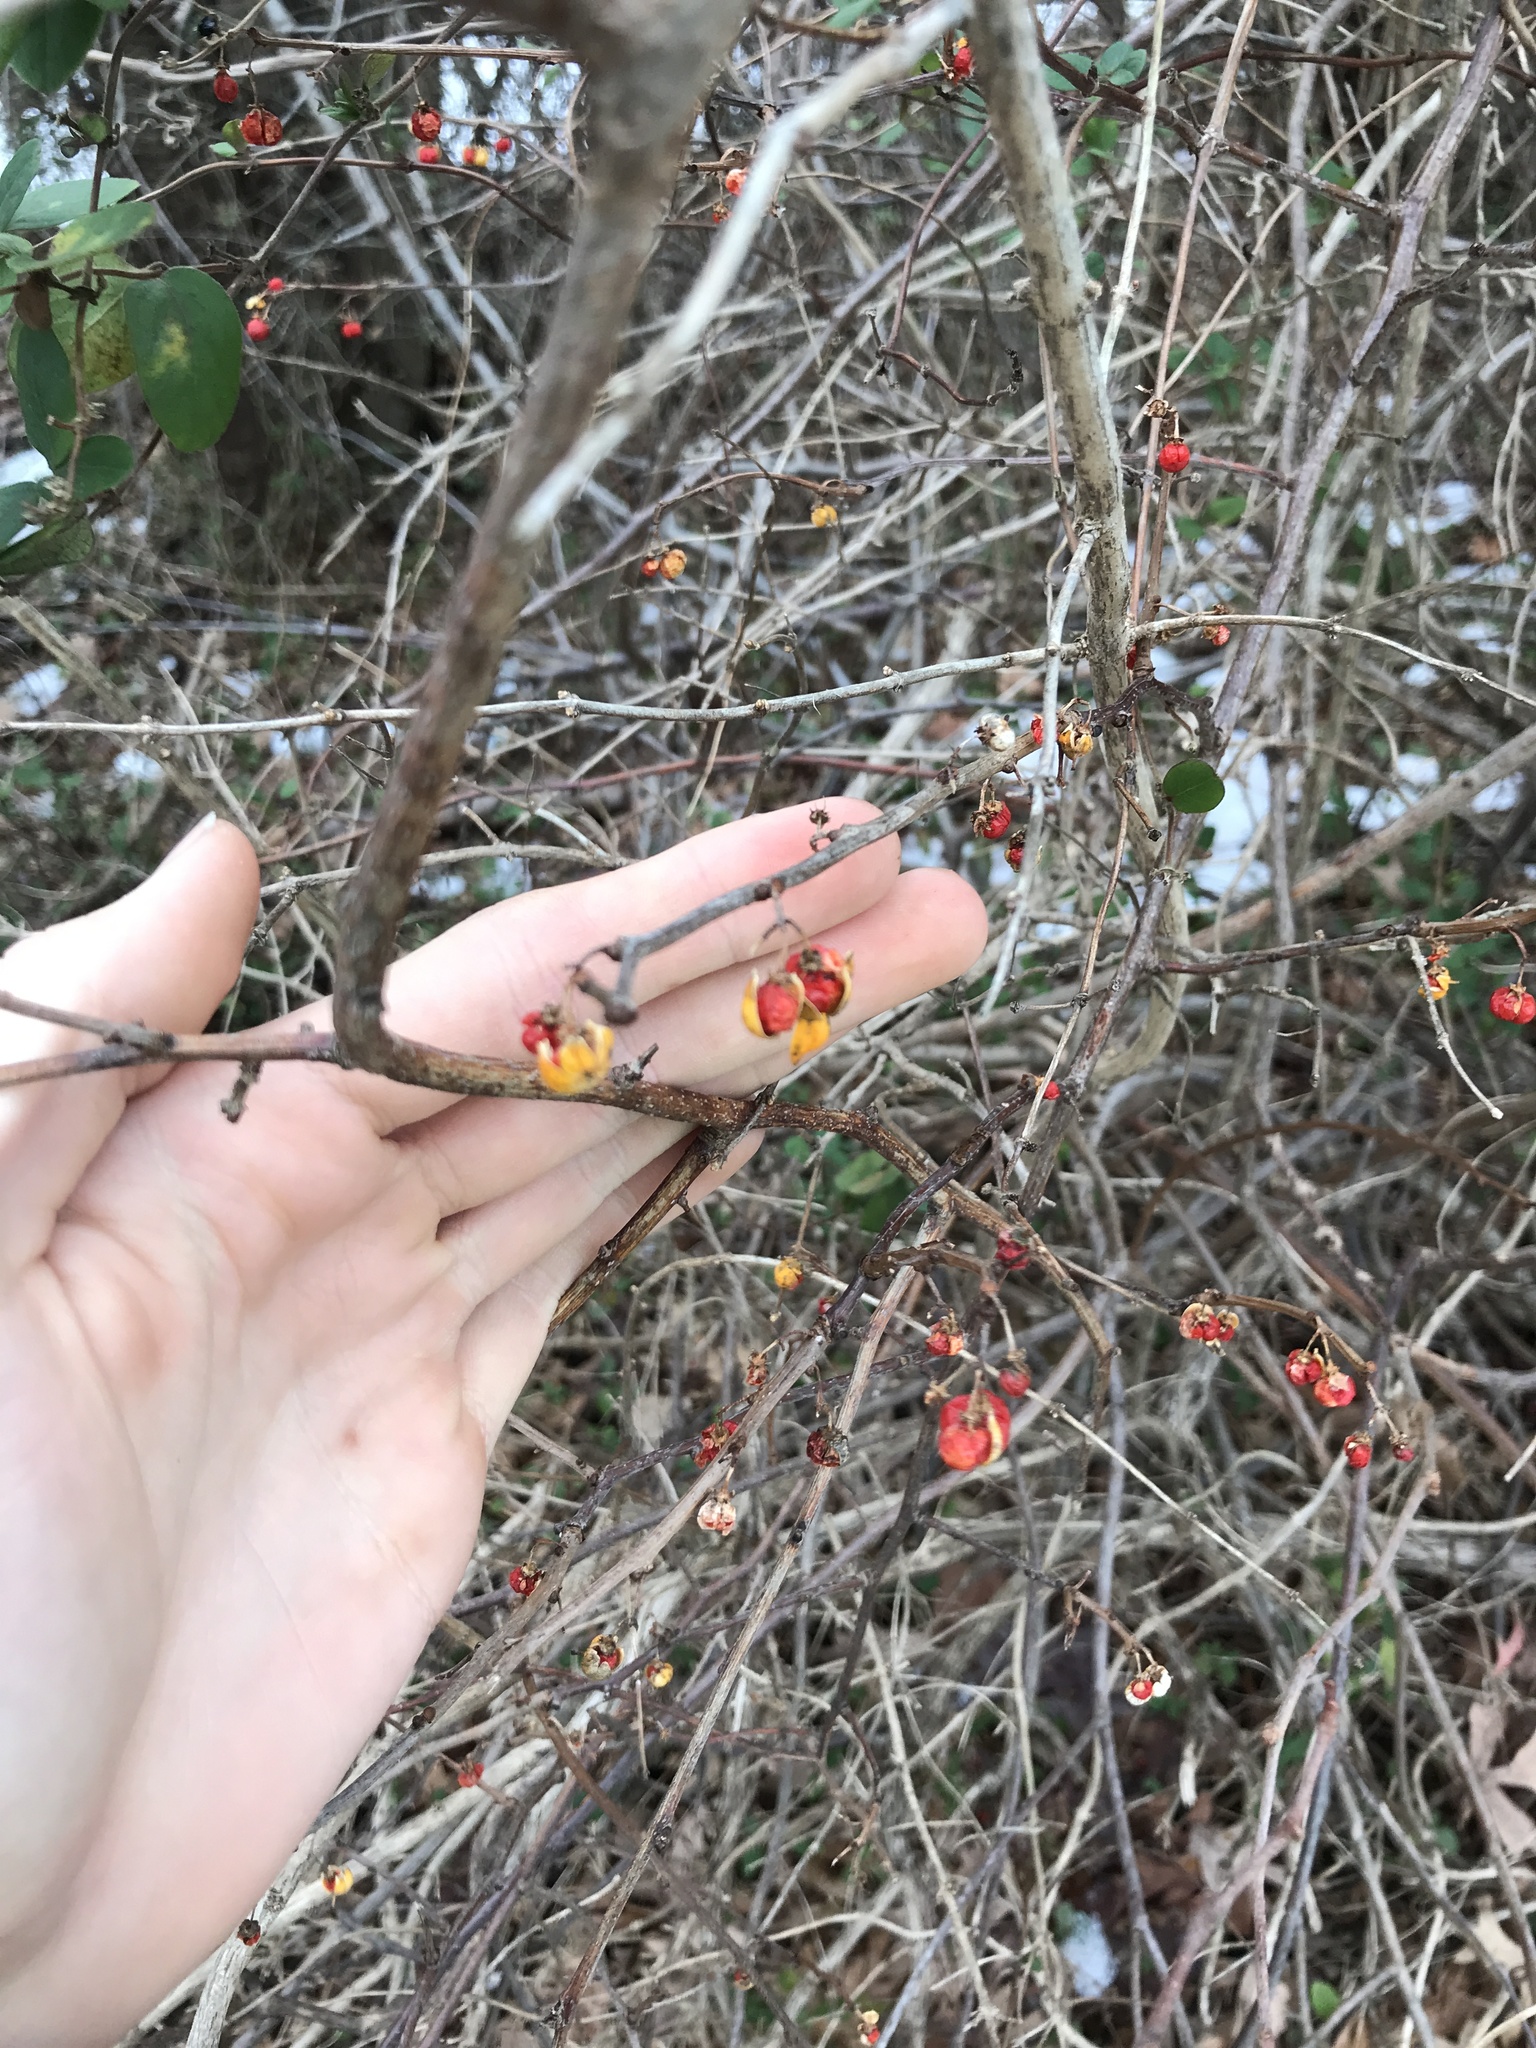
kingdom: Plantae
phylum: Tracheophyta
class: Magnoliopsida
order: Celastrales
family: Celastraceae
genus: Celastrus
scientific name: Celastrus orbiculatus
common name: Oriental bittersweet
